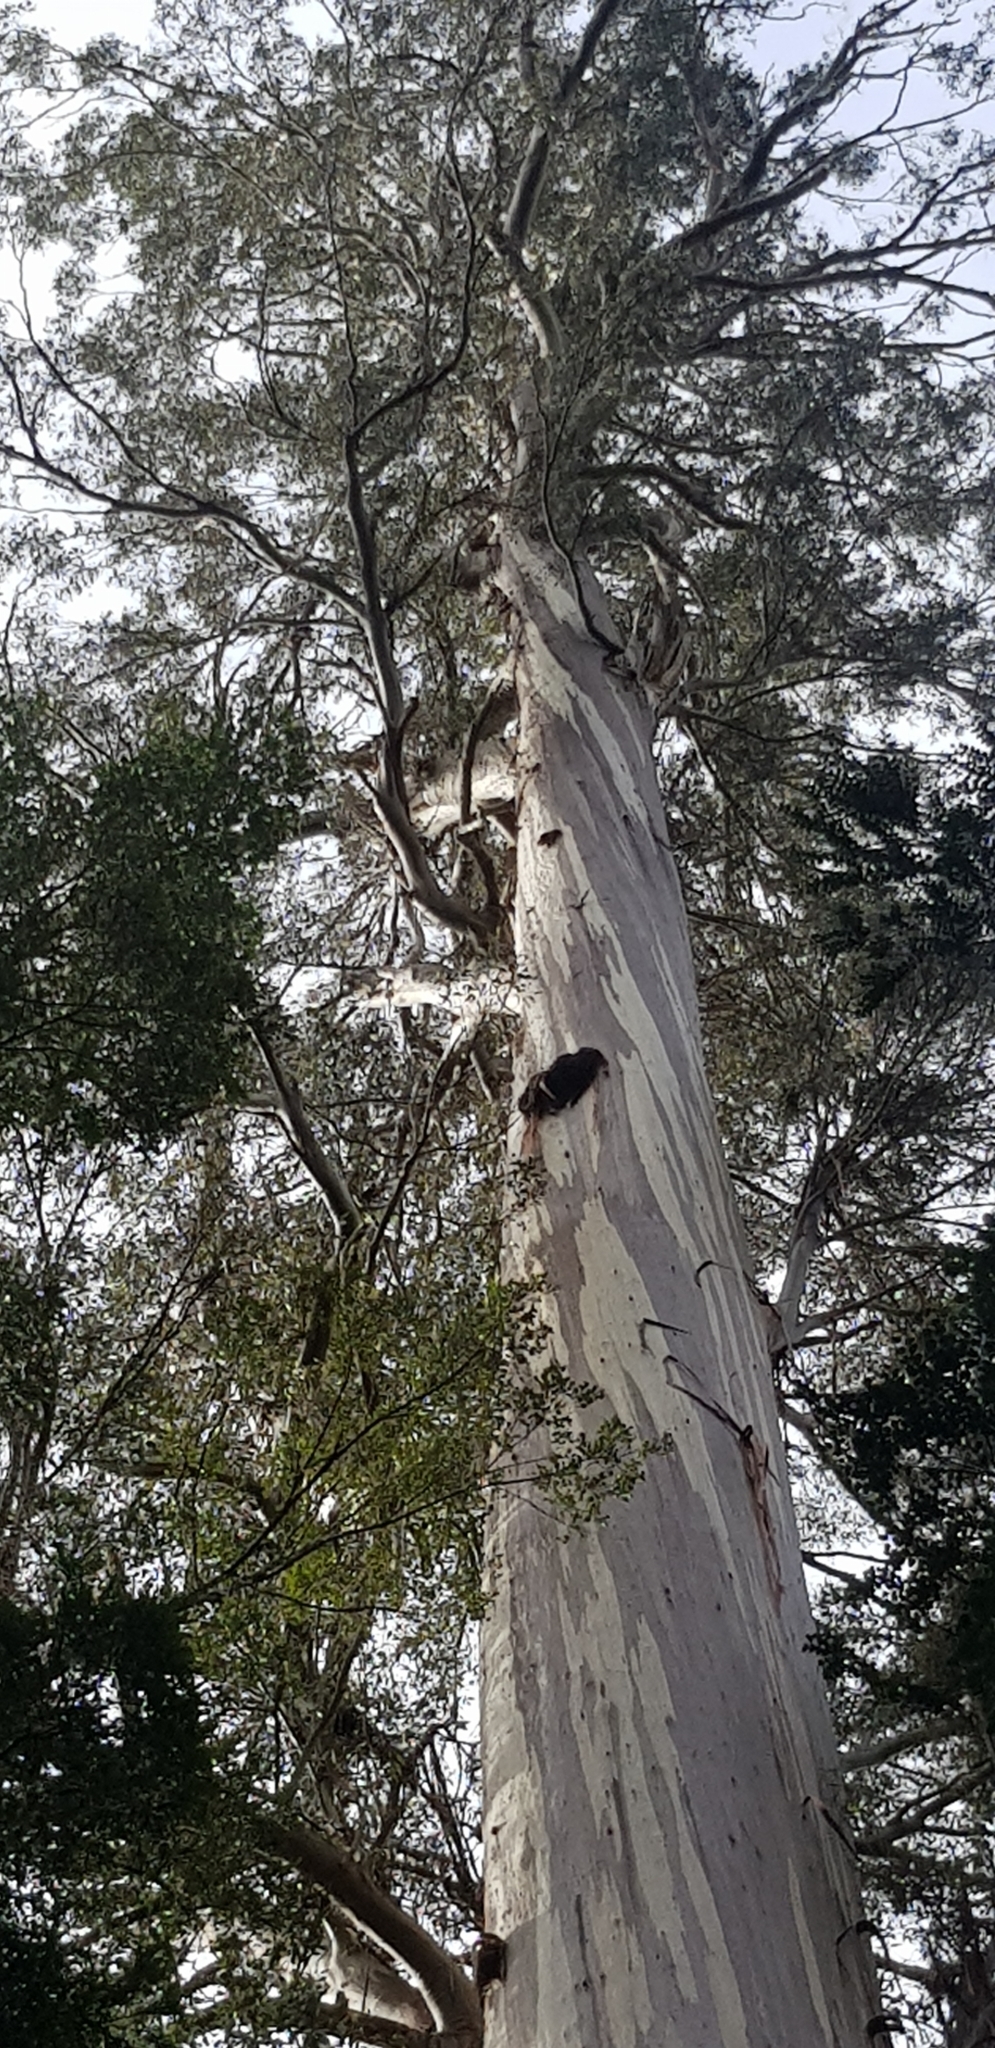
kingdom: Plantae
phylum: Tracheophyta
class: Magnoliopsida
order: Myrtales
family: Myrtaceae
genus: Eucalyptus
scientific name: Eucalyptus regnans
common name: Stringy gum
